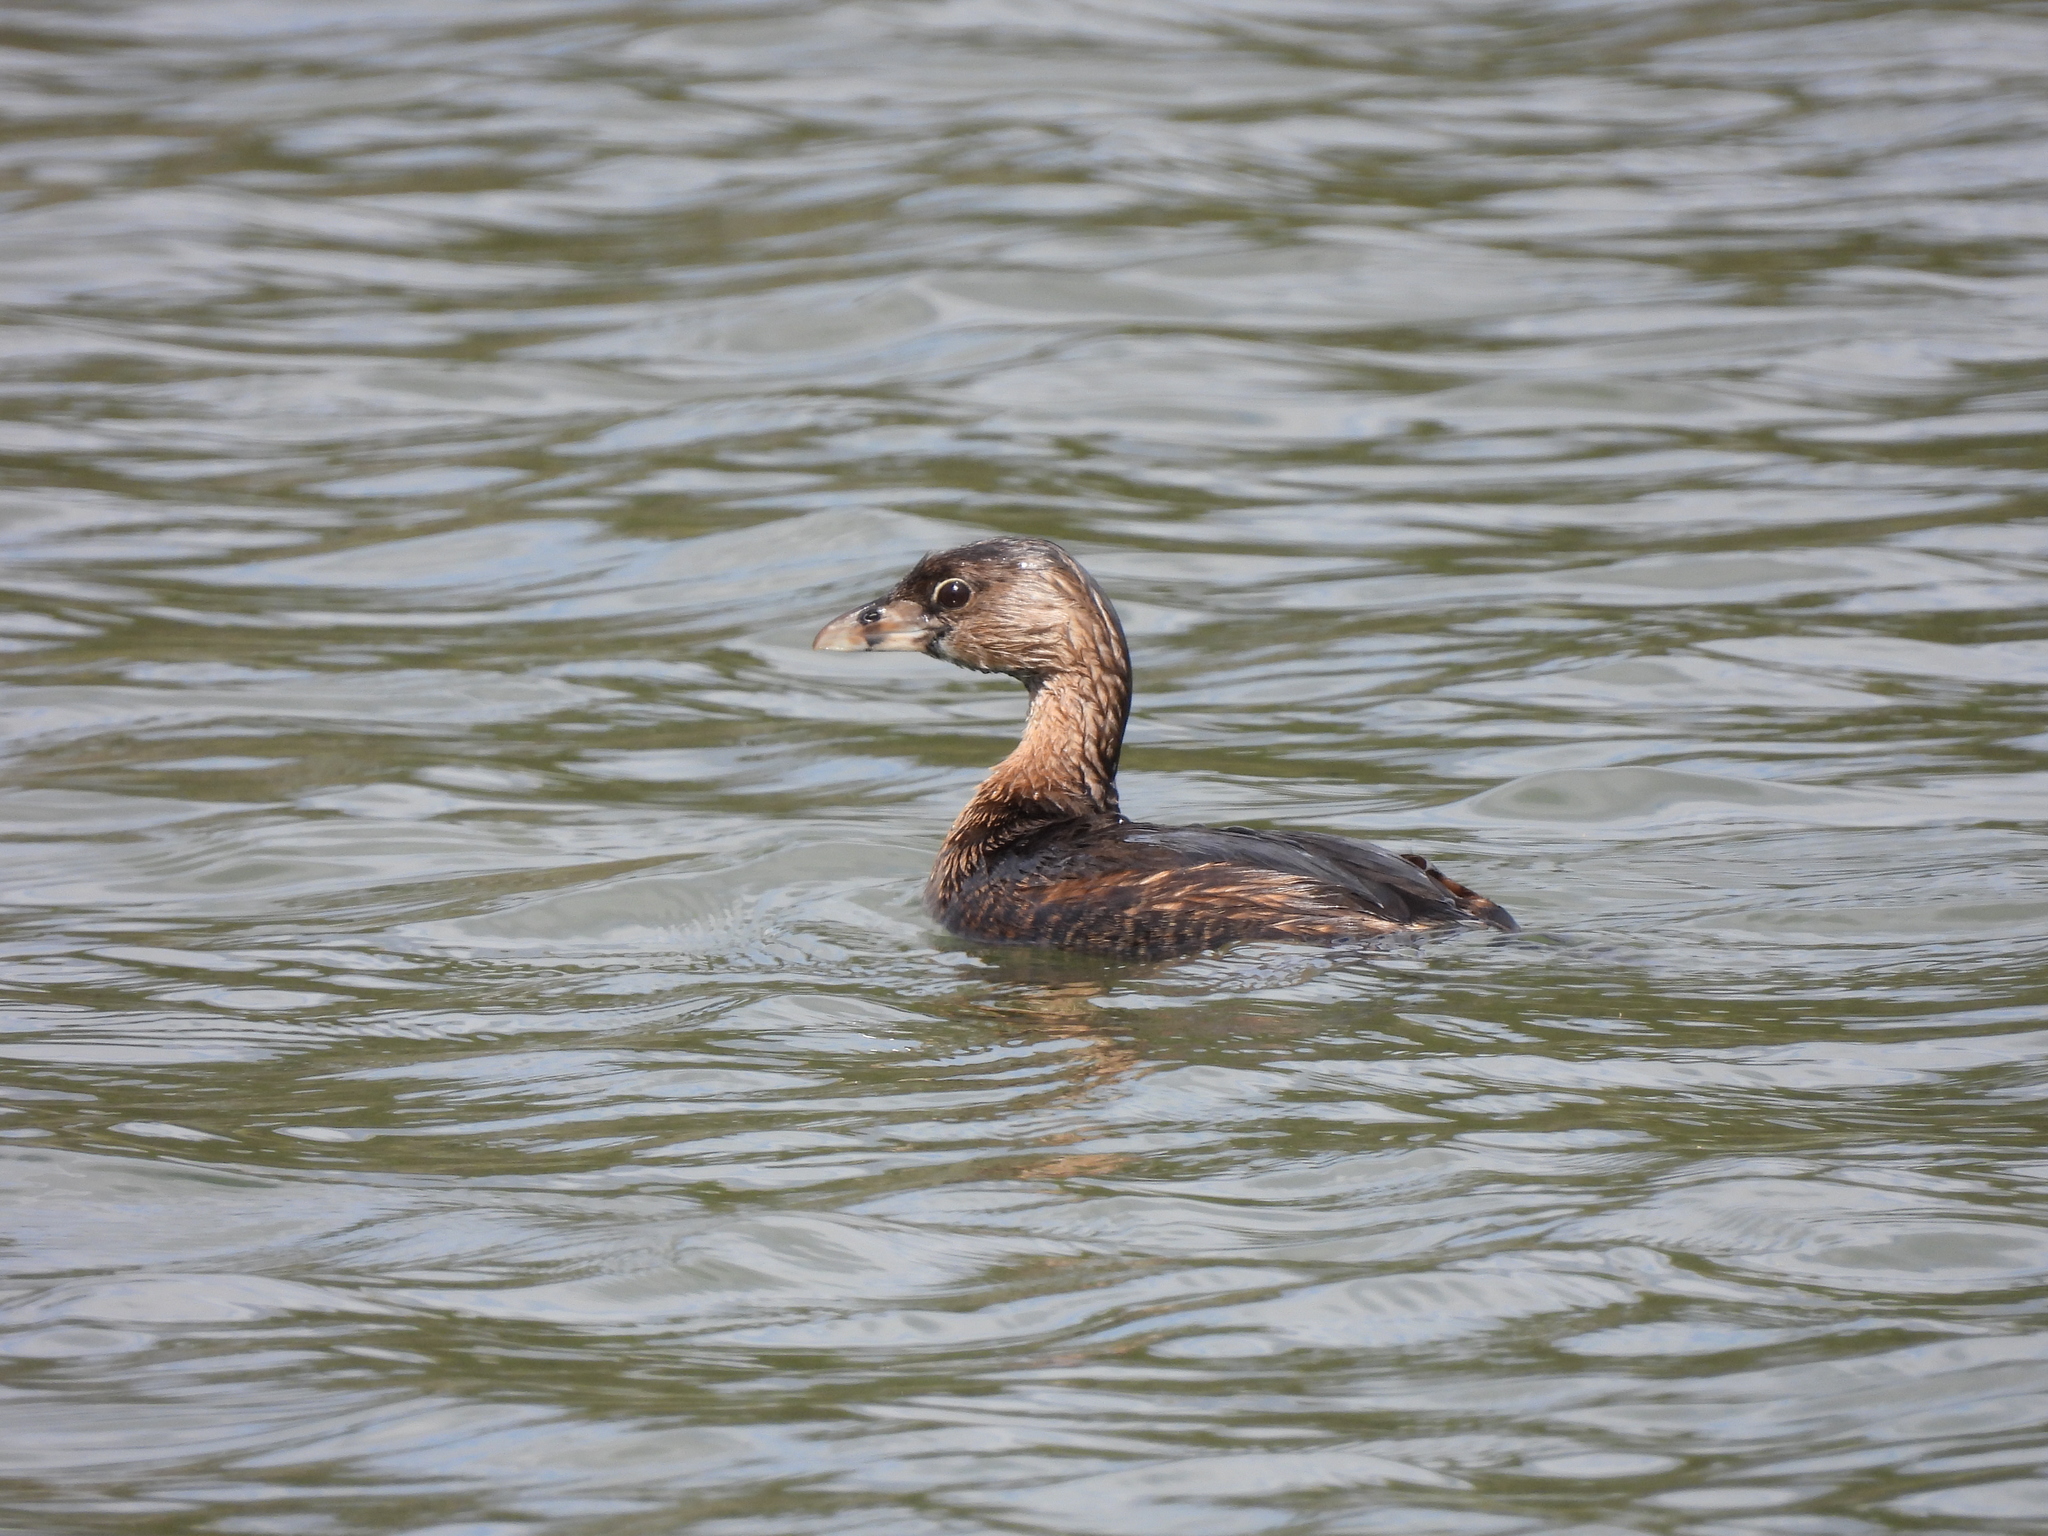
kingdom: Animalia
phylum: Chordata
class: Aves
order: Podicipediformes
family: Podicipedidae
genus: Podilymbus
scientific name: Podilymbus podiceps
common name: Pied-billed grebe
